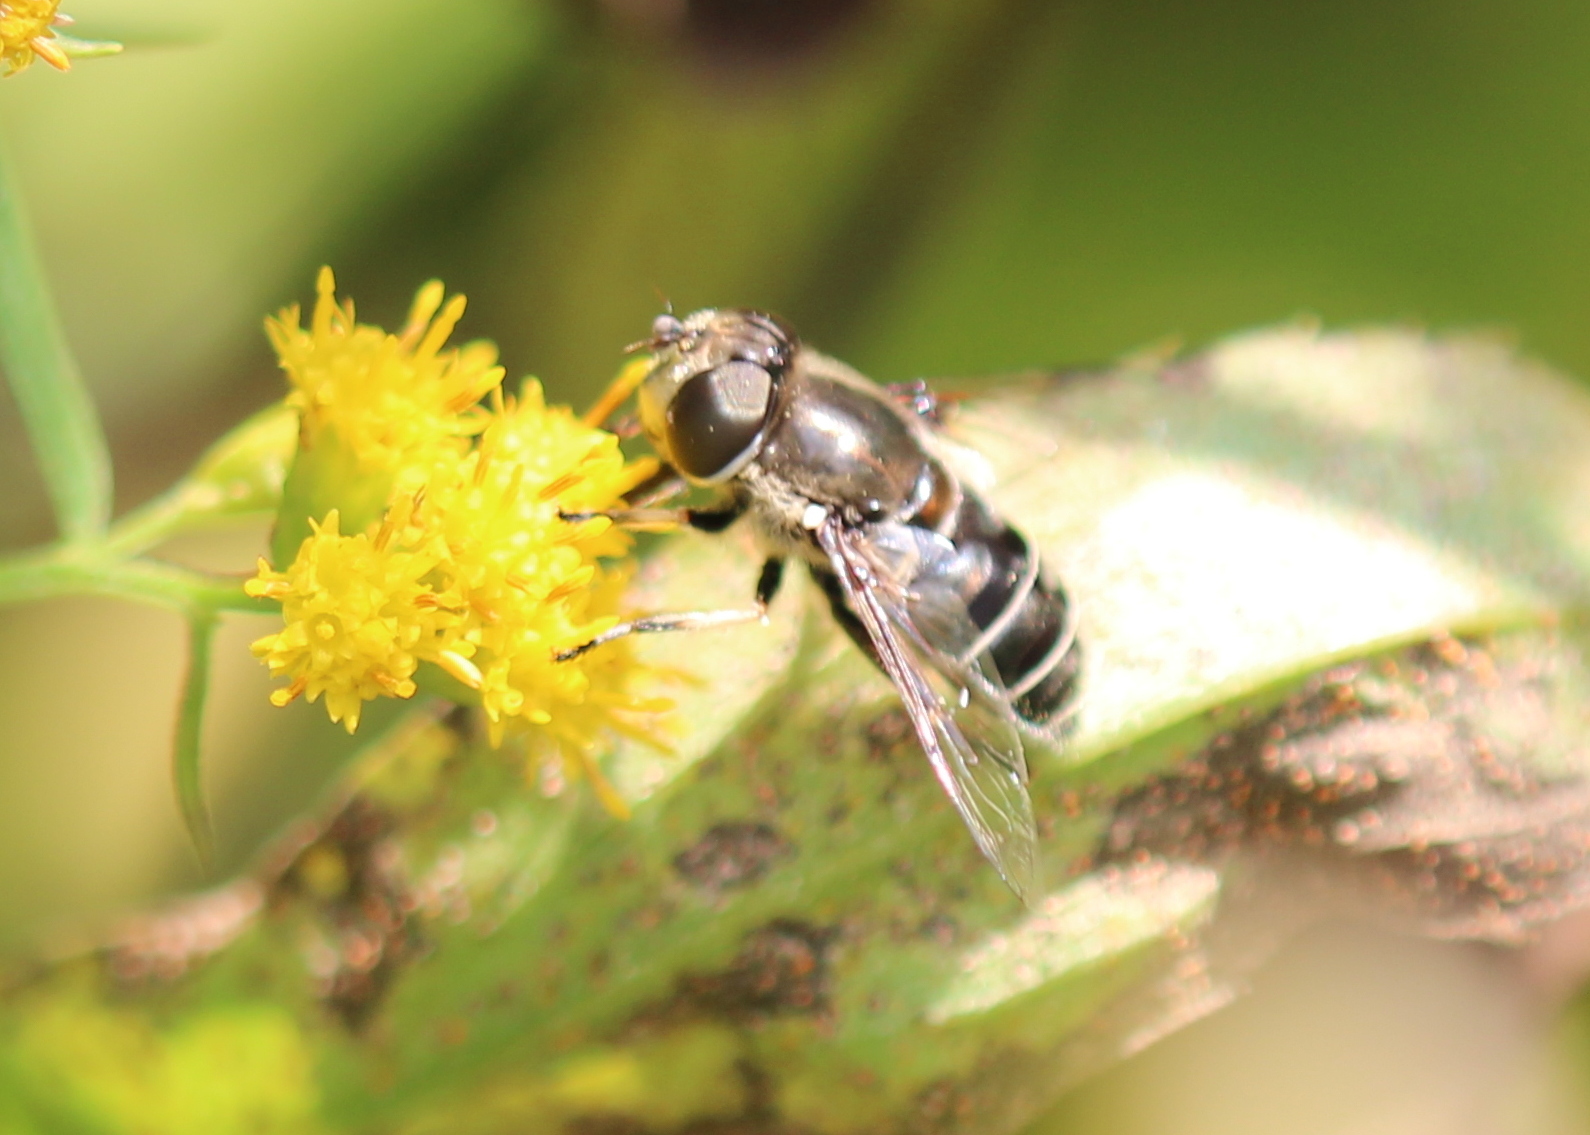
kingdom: Animalia
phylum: Arthropoda
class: Insecta
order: Diptera
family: Syrphidae
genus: Eristalis
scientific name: Eristalis dimidiata
